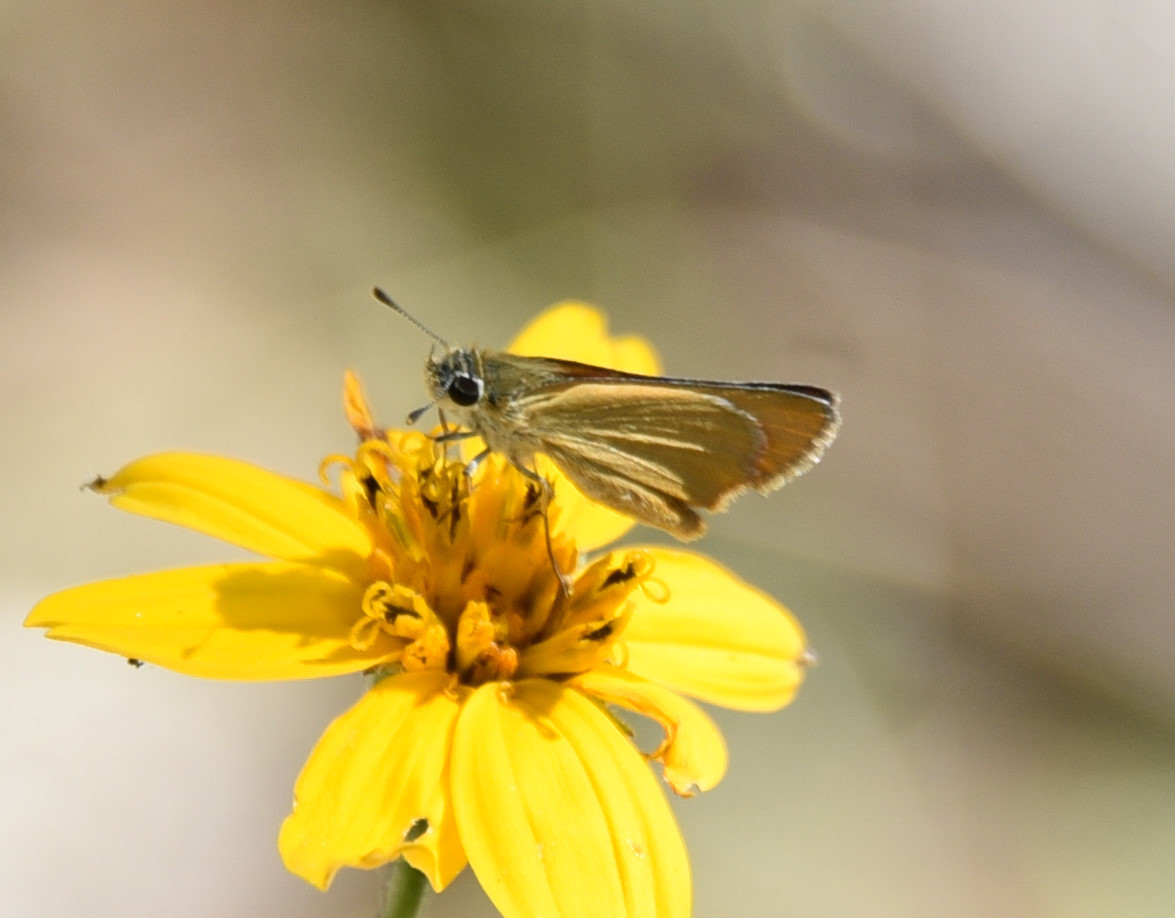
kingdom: Animalia
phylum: Arthropoda
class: Insecta
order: Lepidoptera
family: Hesperiidae
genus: Copaeodes
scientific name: Copaeodes aurantiaca
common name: Orange skipperling
